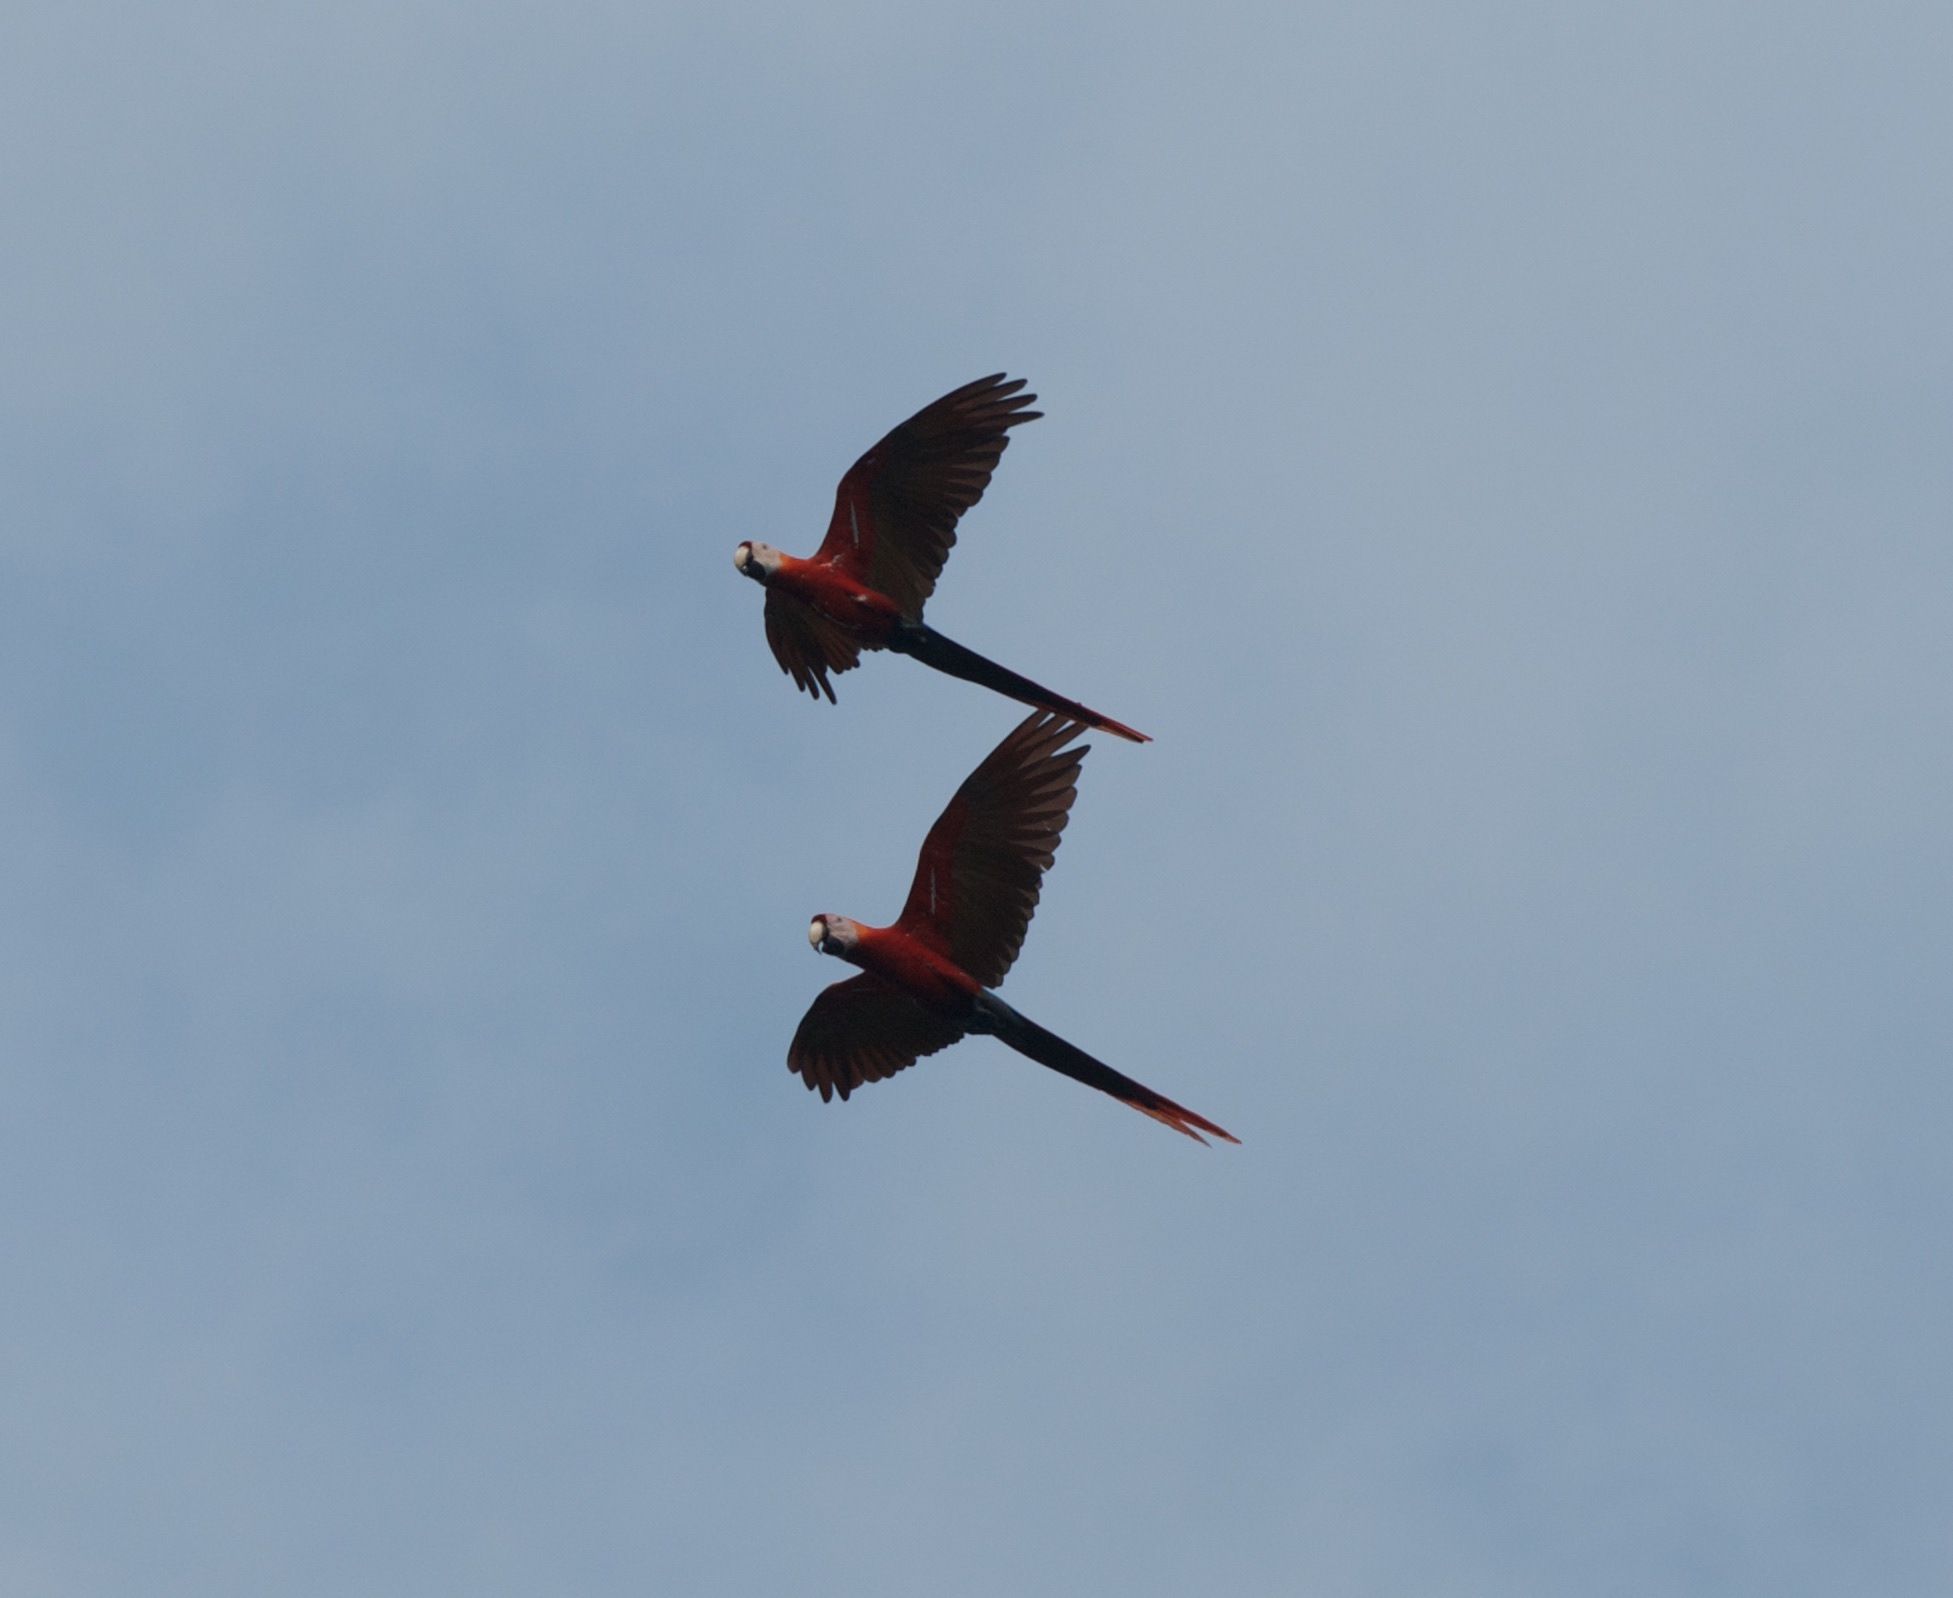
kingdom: Animalia
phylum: Chordata
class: Aves
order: Psittaciformes
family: Psittacidae
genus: Ara
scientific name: Ara macao
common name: Scarlet macaw
